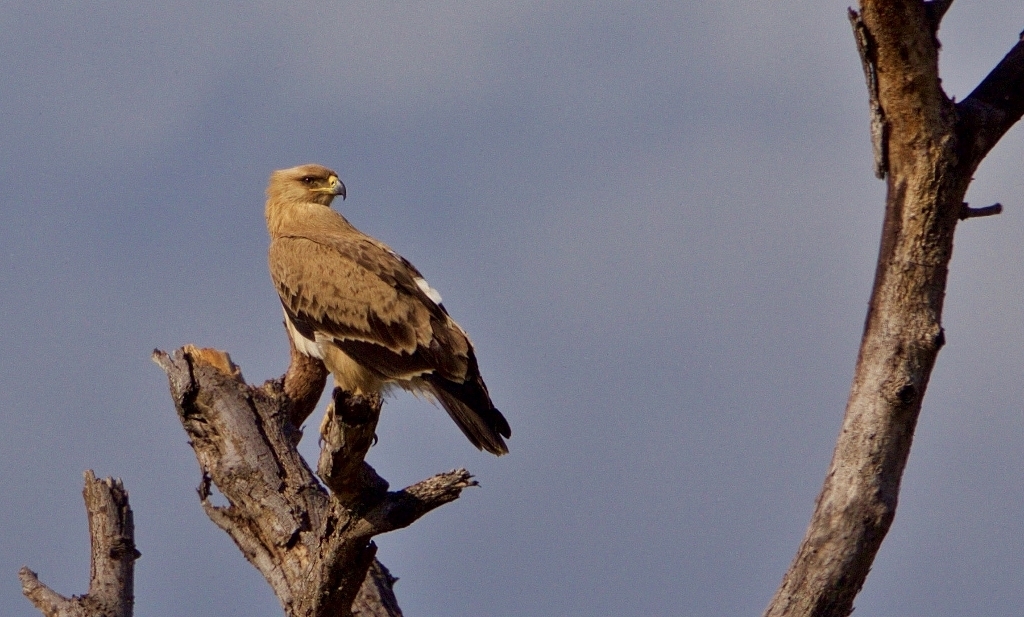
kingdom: Animalia
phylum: Chordata
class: Aves
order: Accipitriformes
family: Accipitridae
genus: Aquila
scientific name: Aquila rapax
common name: Tawny eagle
